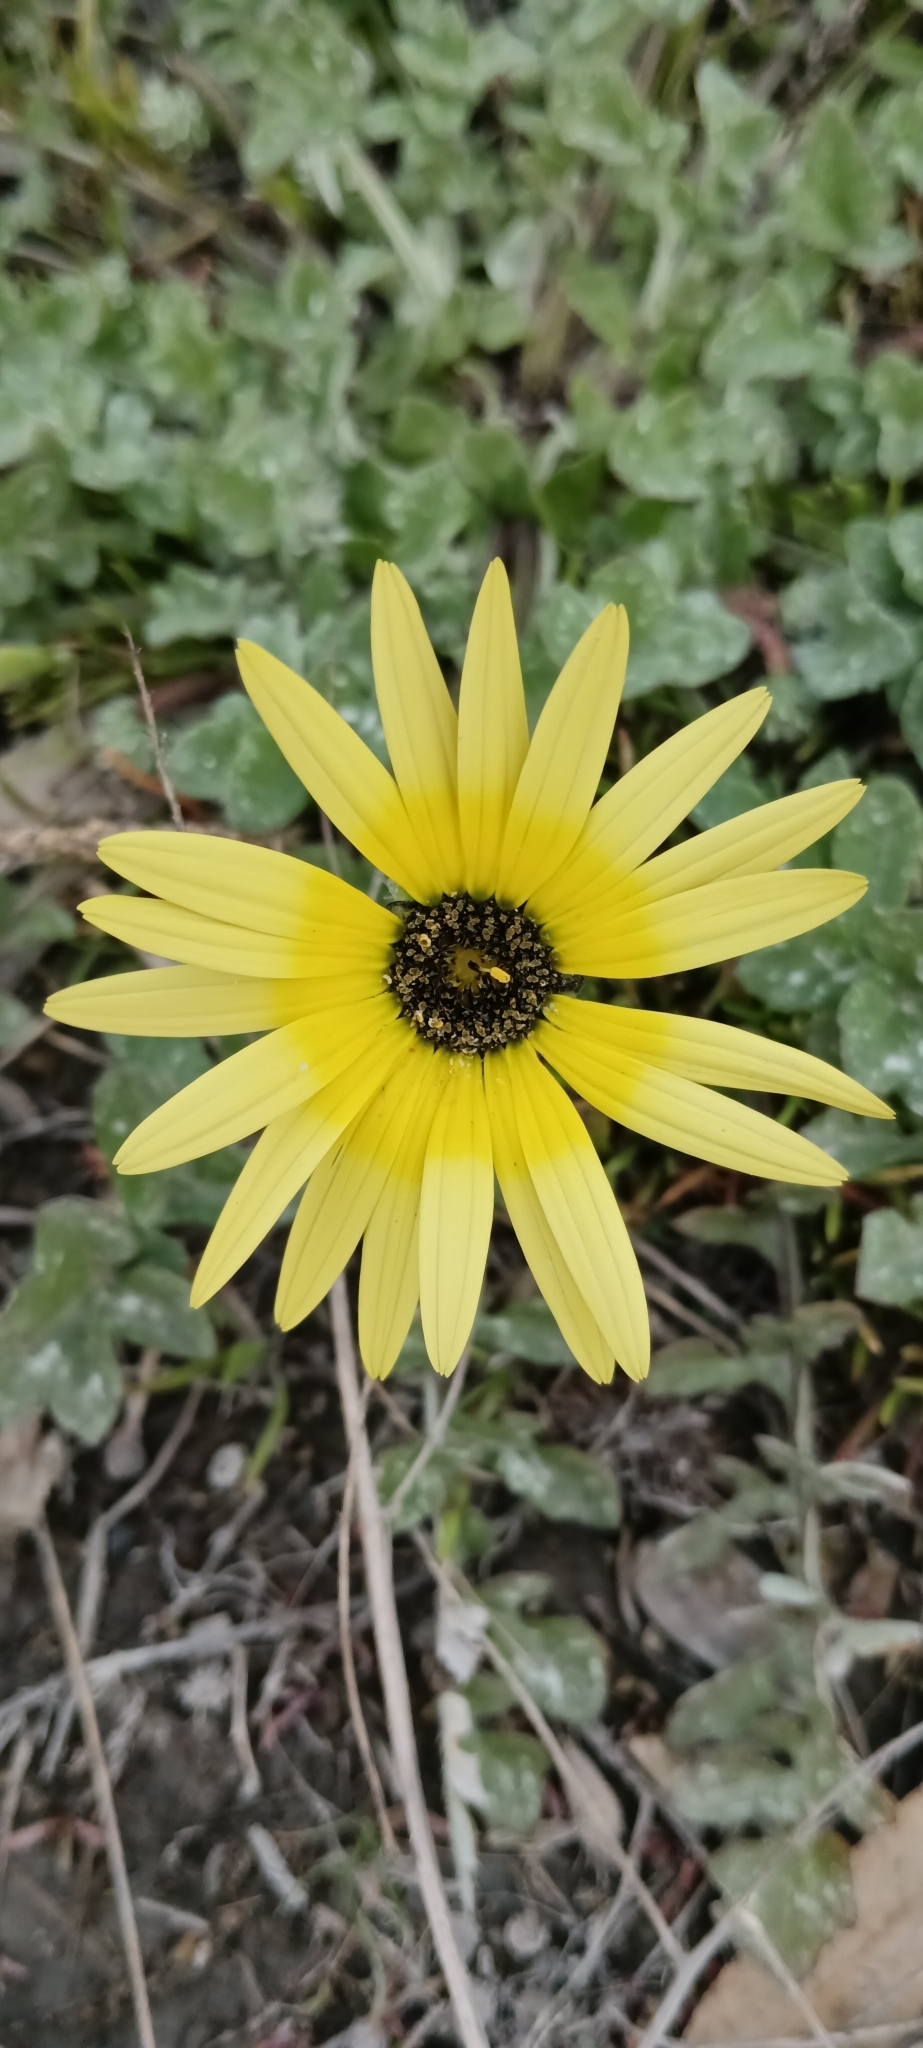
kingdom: Plantae
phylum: Tracheophyta
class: Magnoliopsida
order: Asterales
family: Asteraceae
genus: Arctotheca
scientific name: Arctotheca calendula
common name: Capeweed
